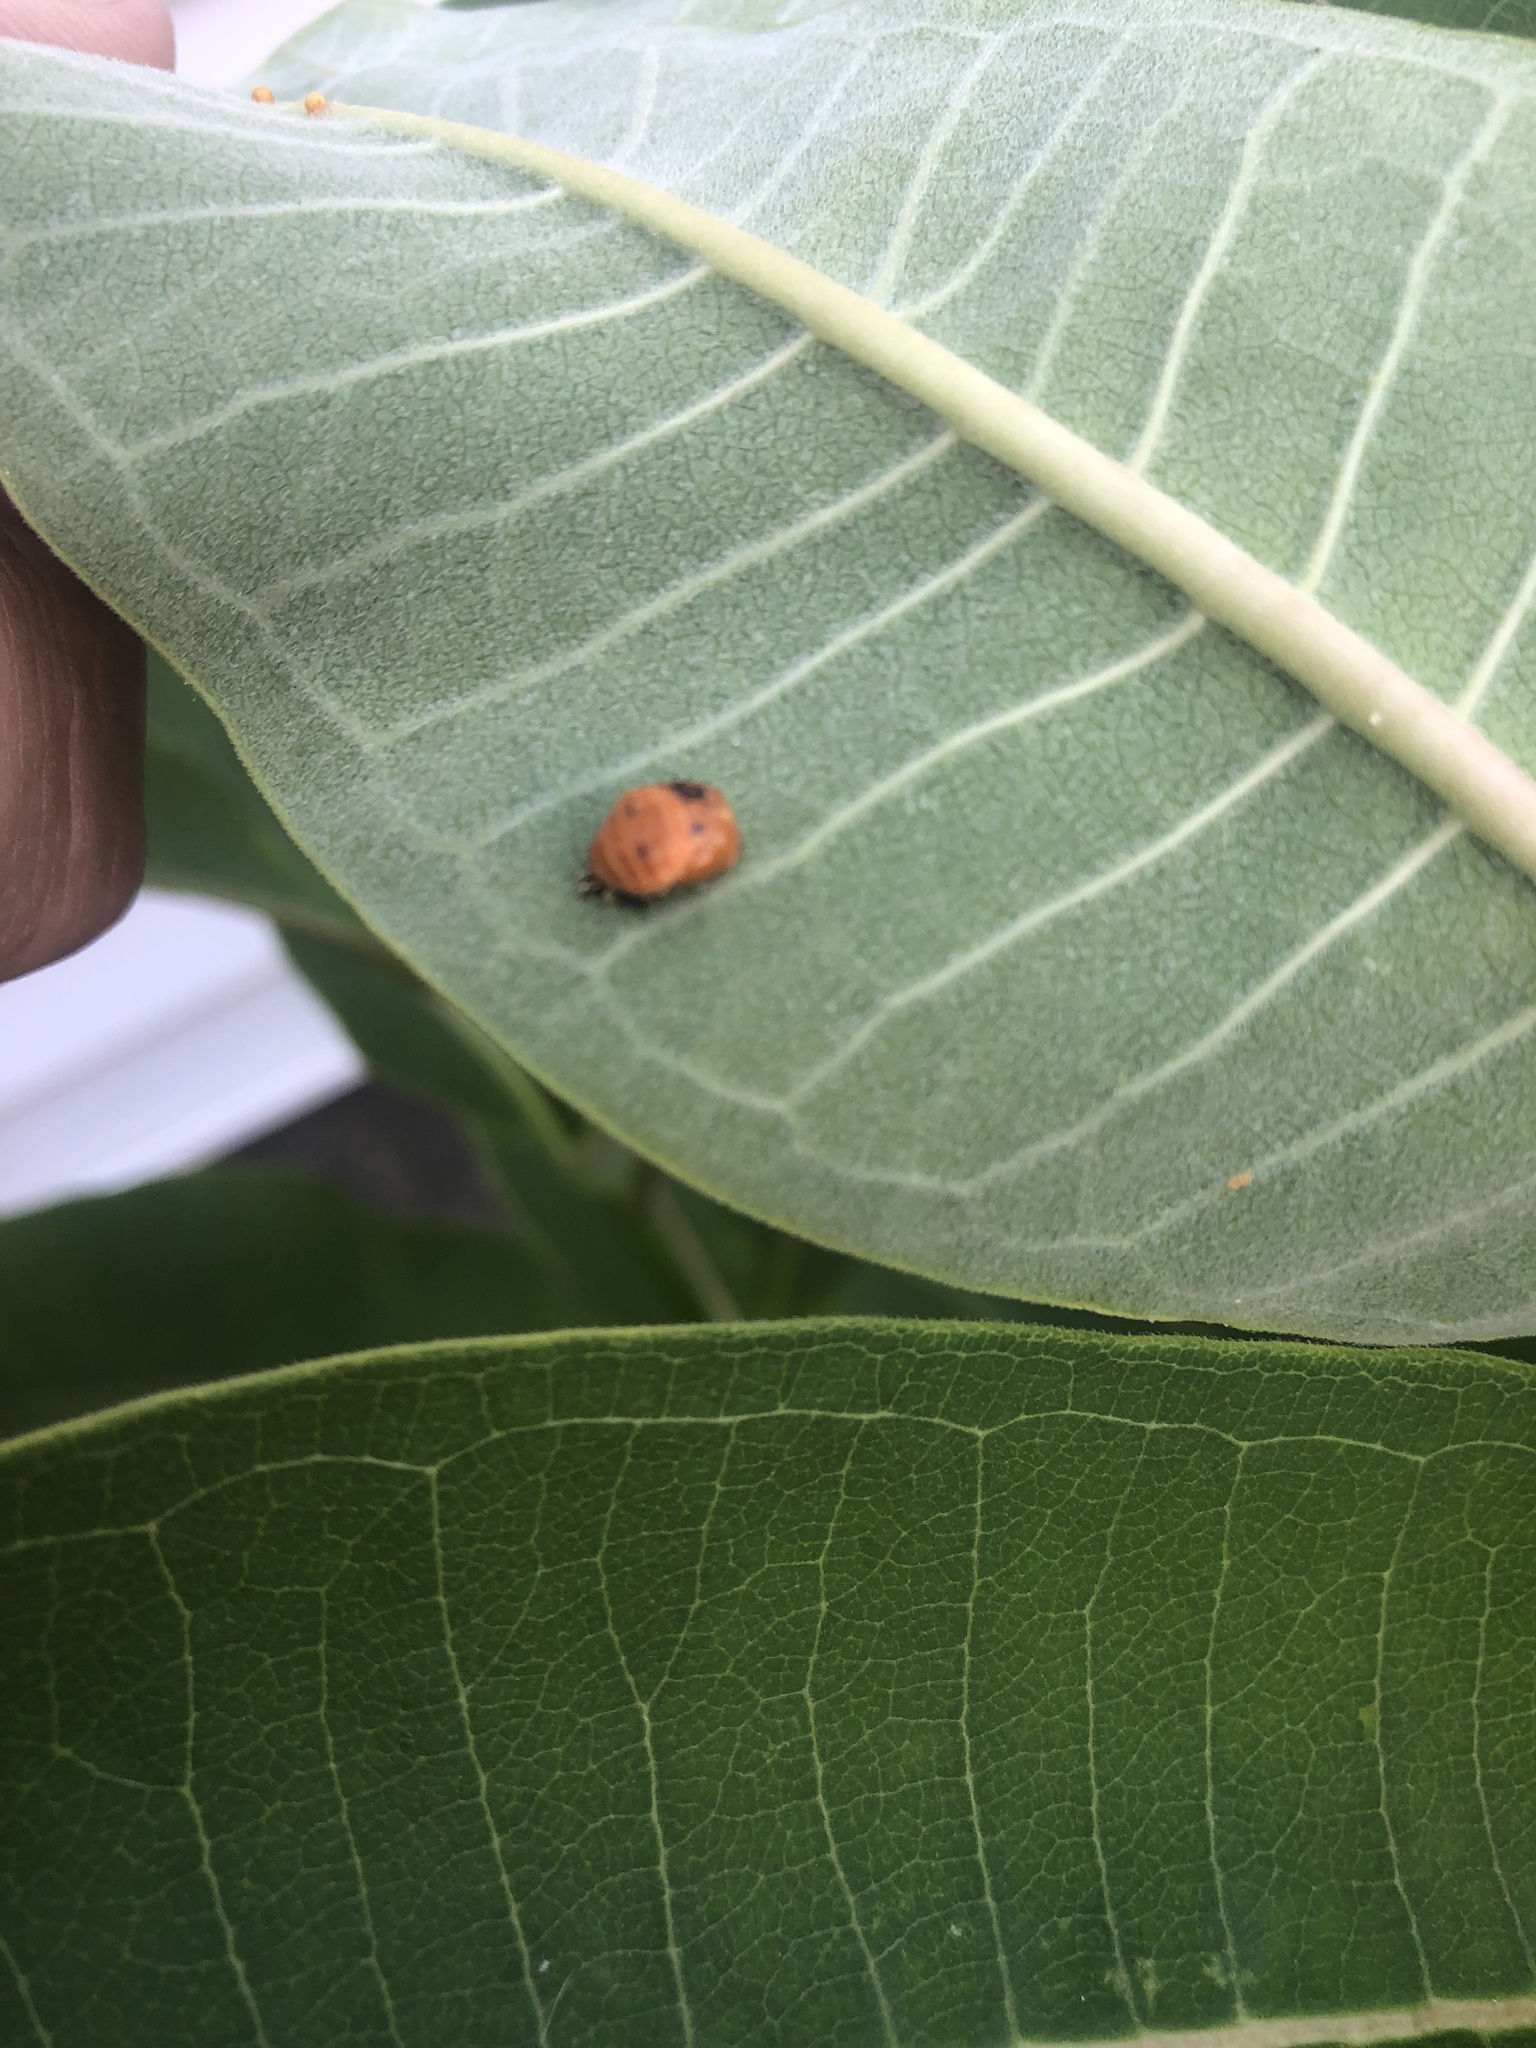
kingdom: Animalia
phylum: Arthropoda
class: Insecta
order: Coleoptera
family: Coccinellidae
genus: Harmonia
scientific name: Harmonia axyridis
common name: Harlequin ladybird
